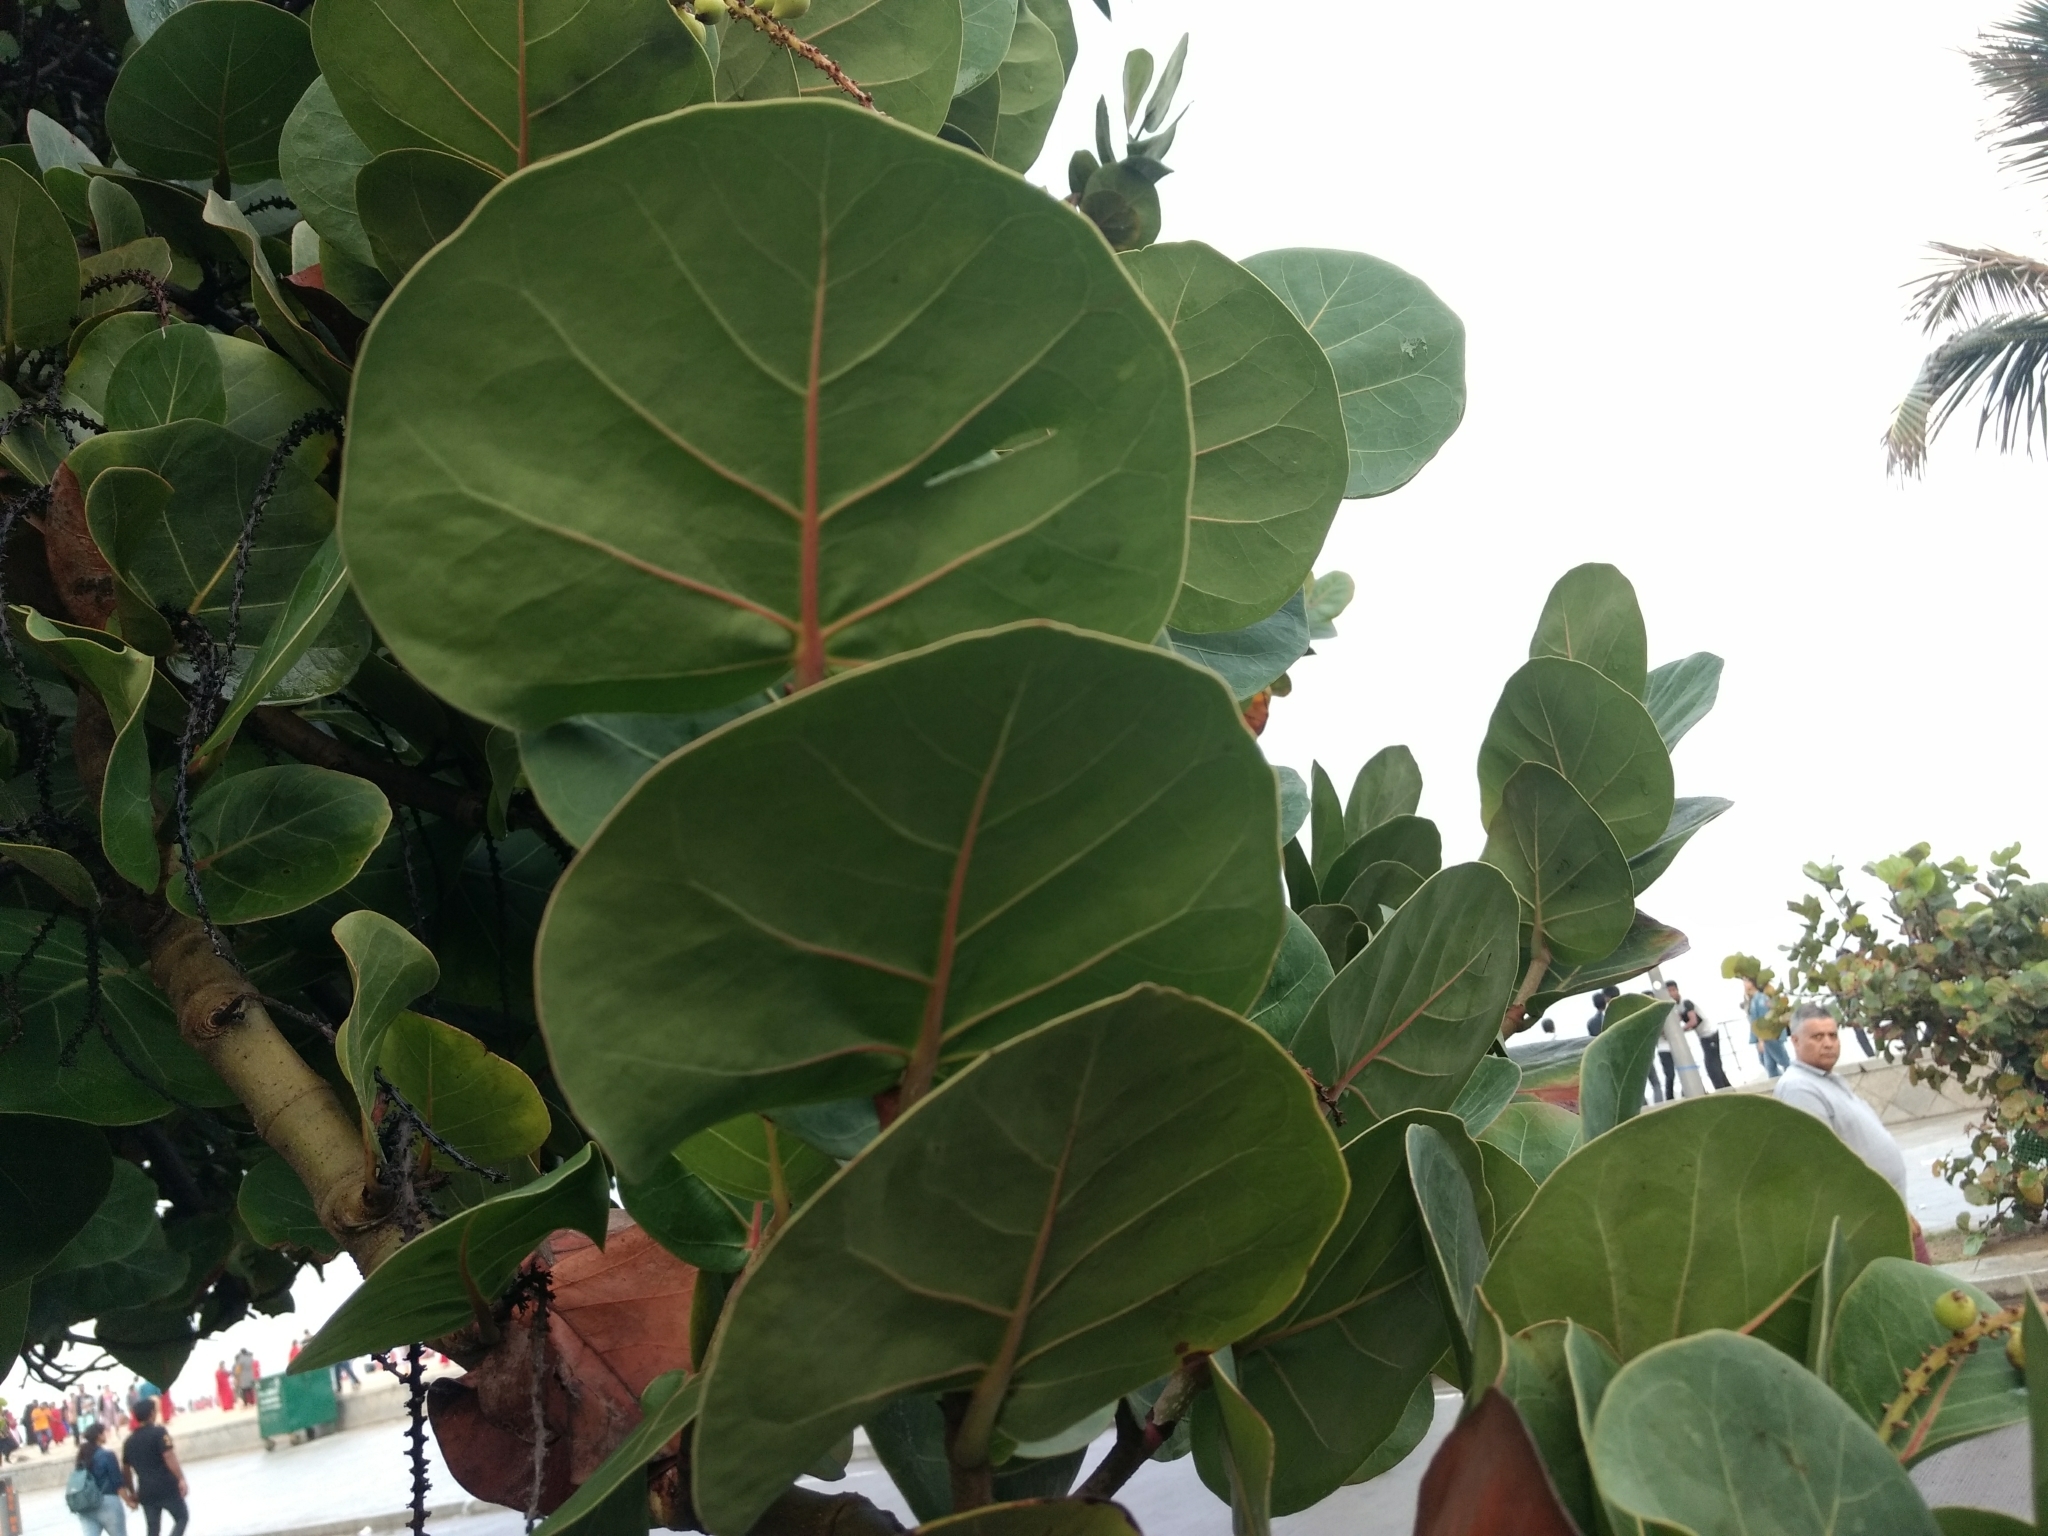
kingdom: Plantae
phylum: Tracheophyta
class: Magnoliopsida
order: Caryophyllales
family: Polygonaceae
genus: Coccoloba
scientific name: Coccoloba uvifera
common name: Seagrape
